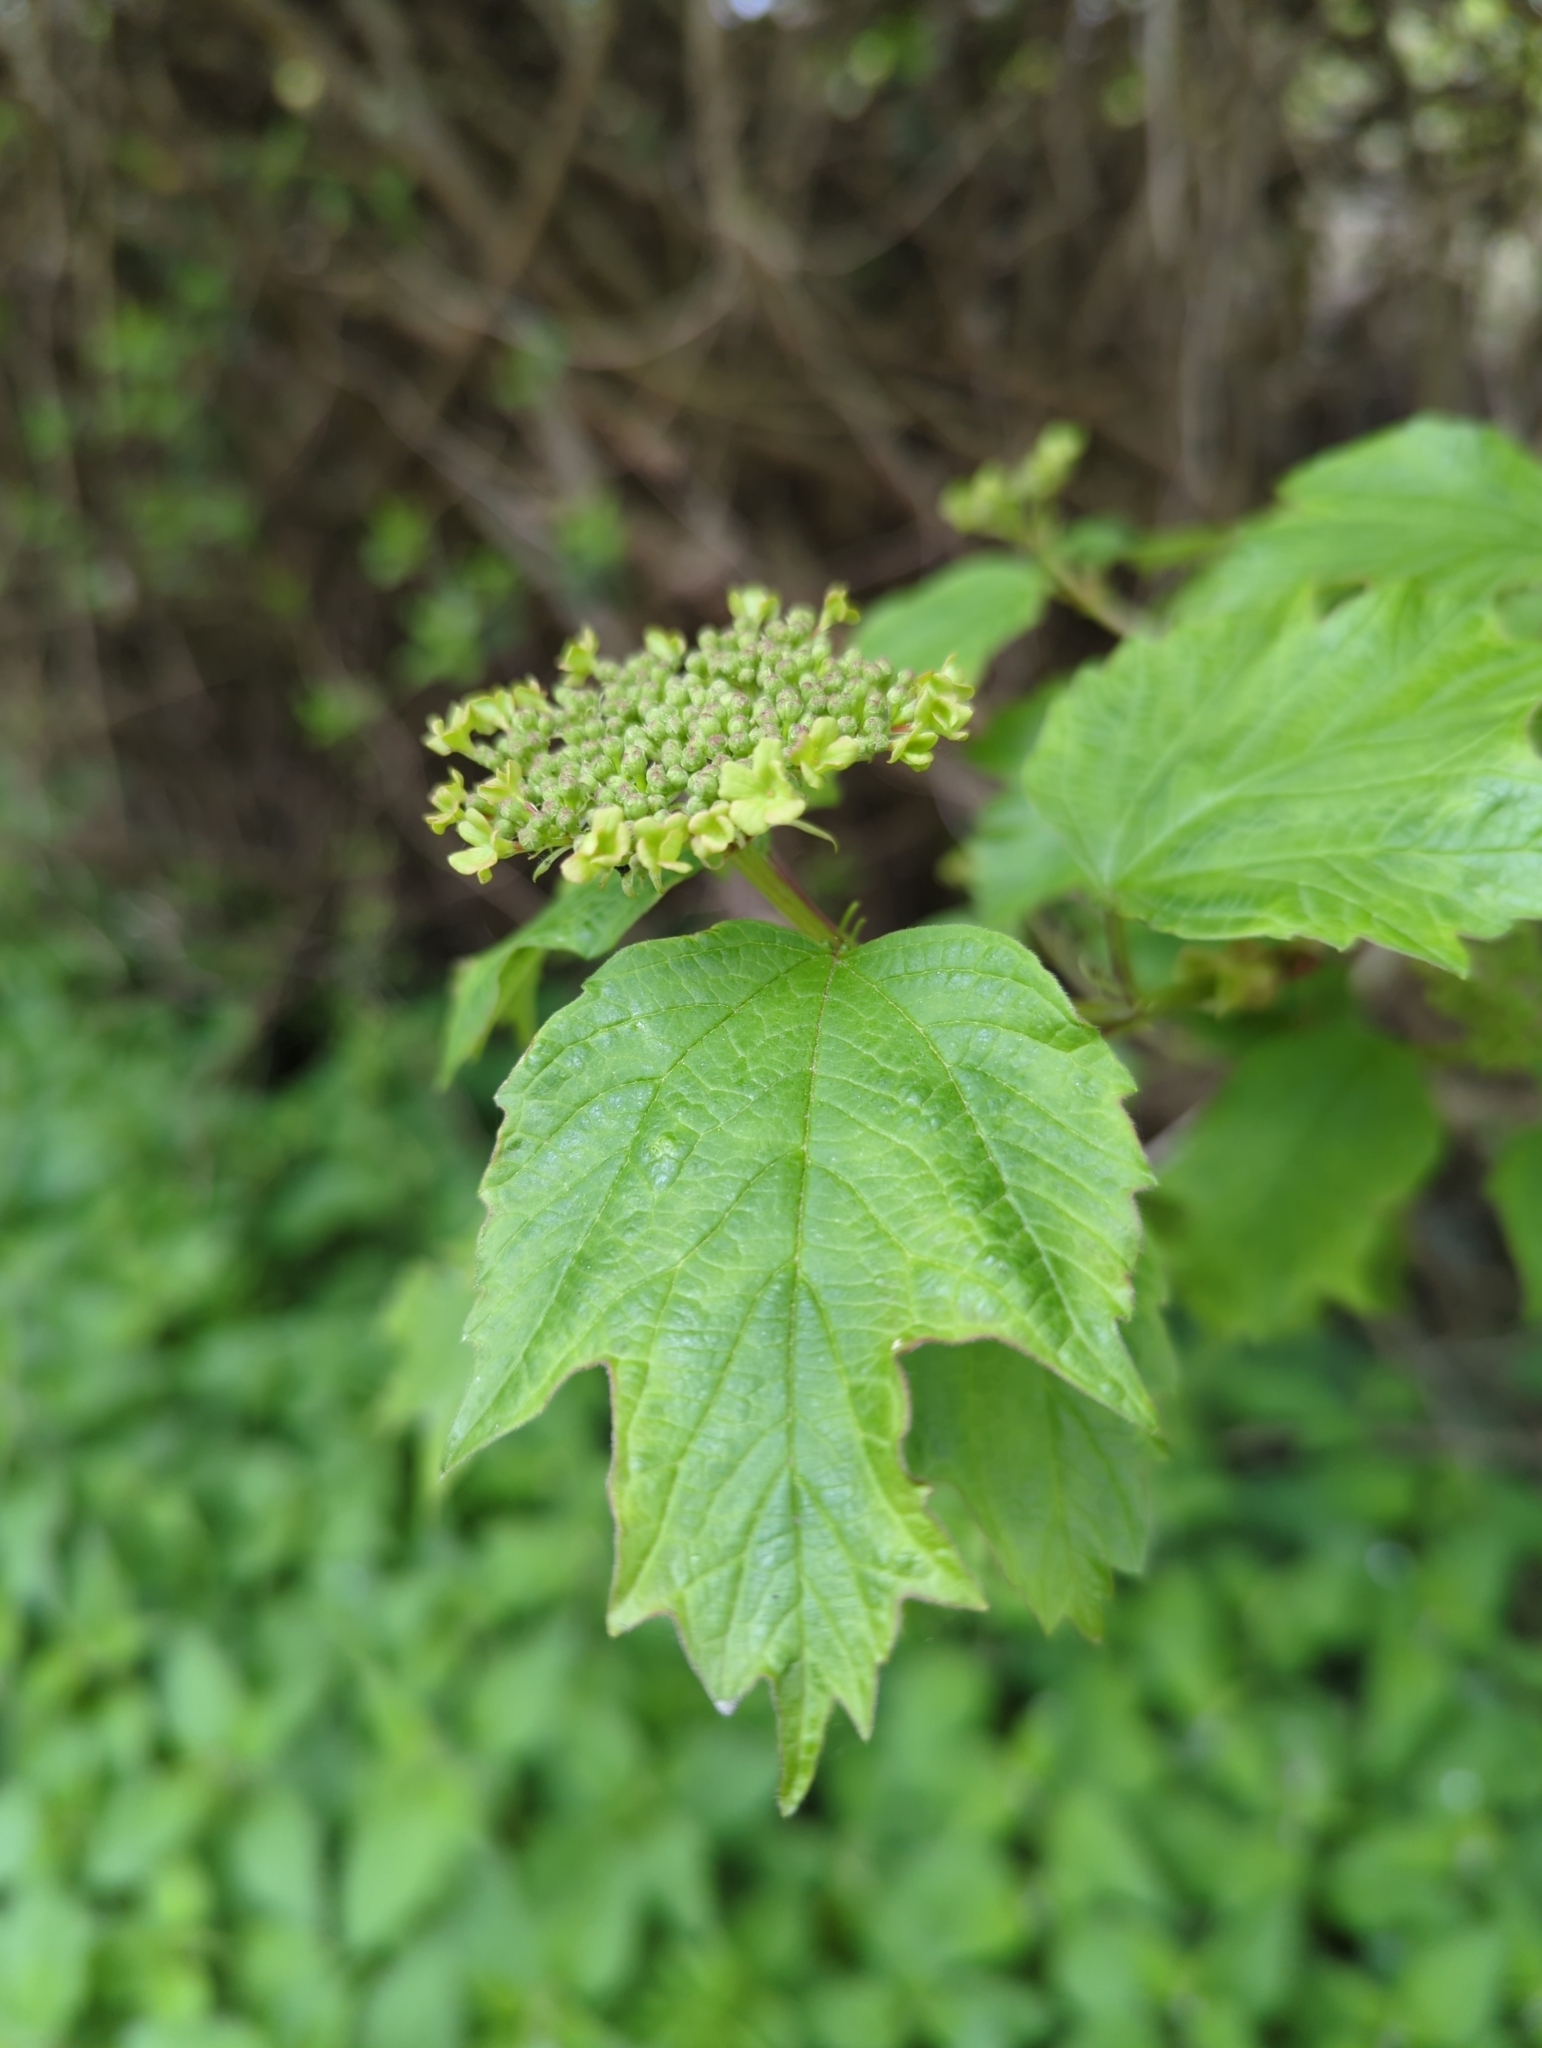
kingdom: Plantae
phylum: Tracheophyta
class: Magnoliopsida
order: Dipsacales
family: Viburnaceae
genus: Viburnum
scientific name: Viburnum opulus
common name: Guelder-rose
